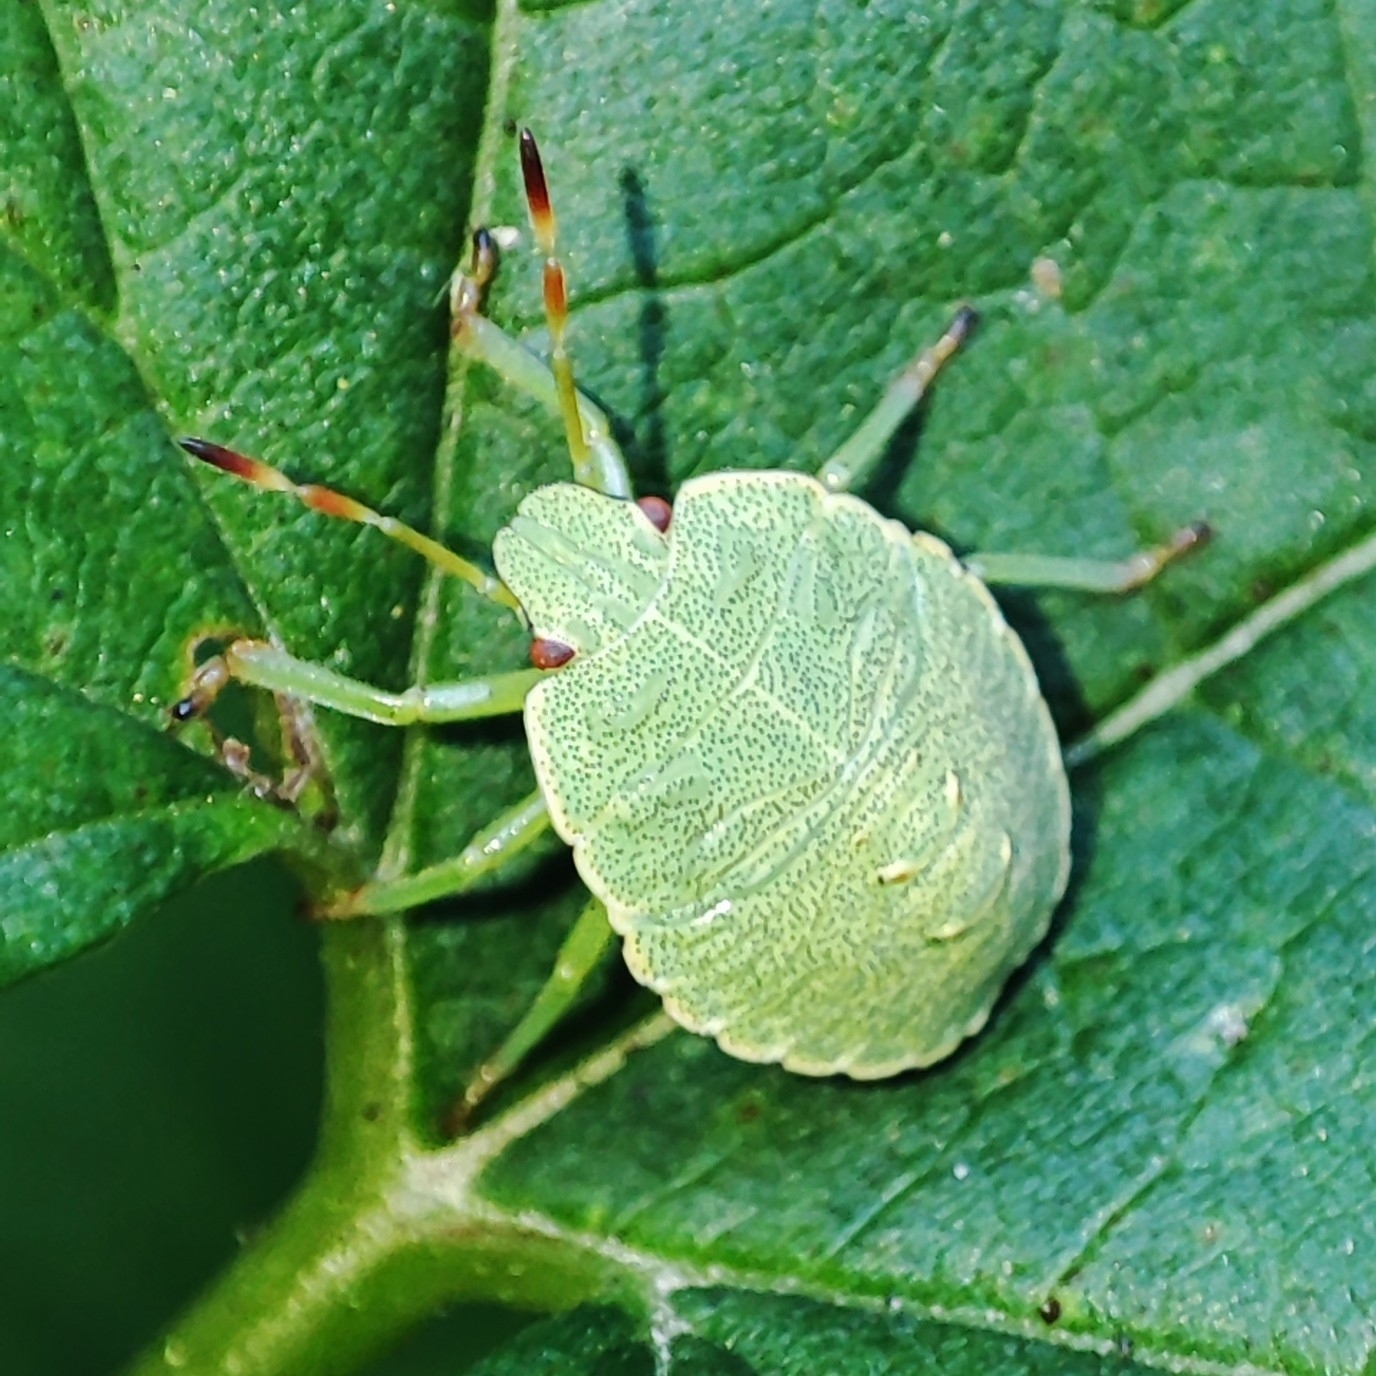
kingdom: Animalia
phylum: Arthropoda
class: Insecta
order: Hemiptera
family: Pentatomidae
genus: Palomena
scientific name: Palomena prasina
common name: Green shieldbug
